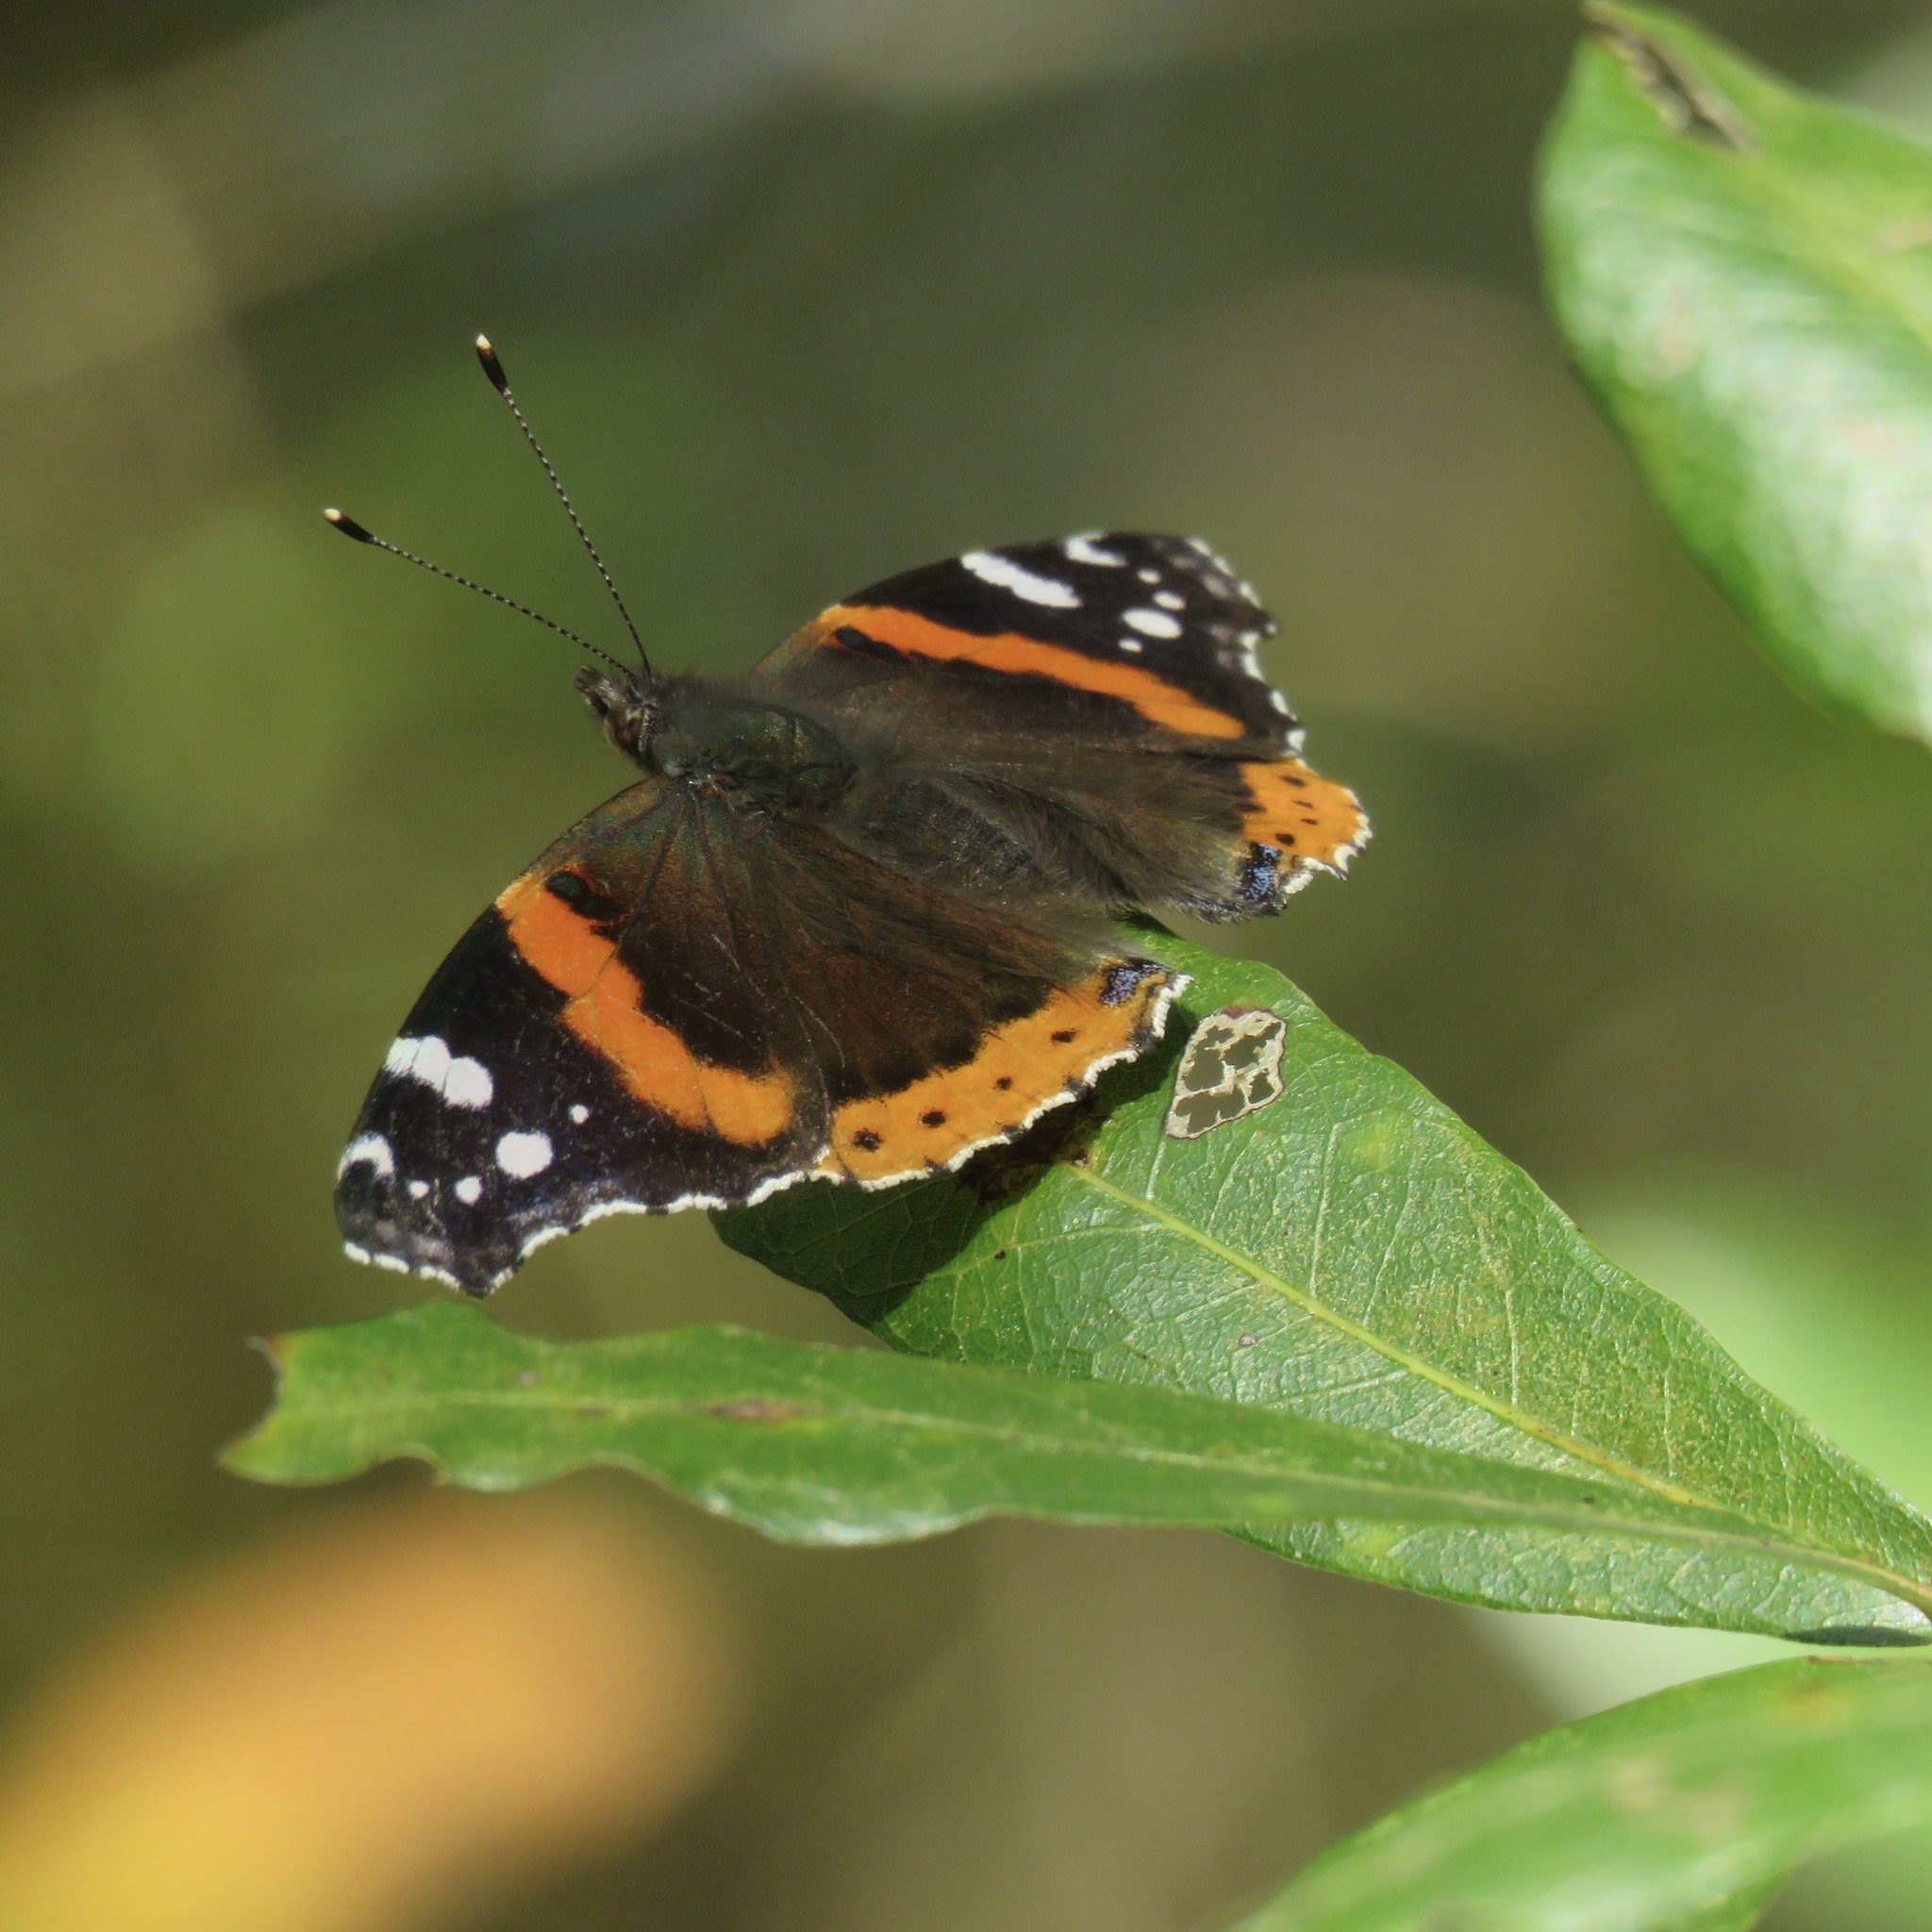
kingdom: Animalia
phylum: Arthropoda
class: Insecta
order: Lepidoptera
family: Nymphalidae
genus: Vanessa
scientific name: Vanessa atalanta
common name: Red admiral
